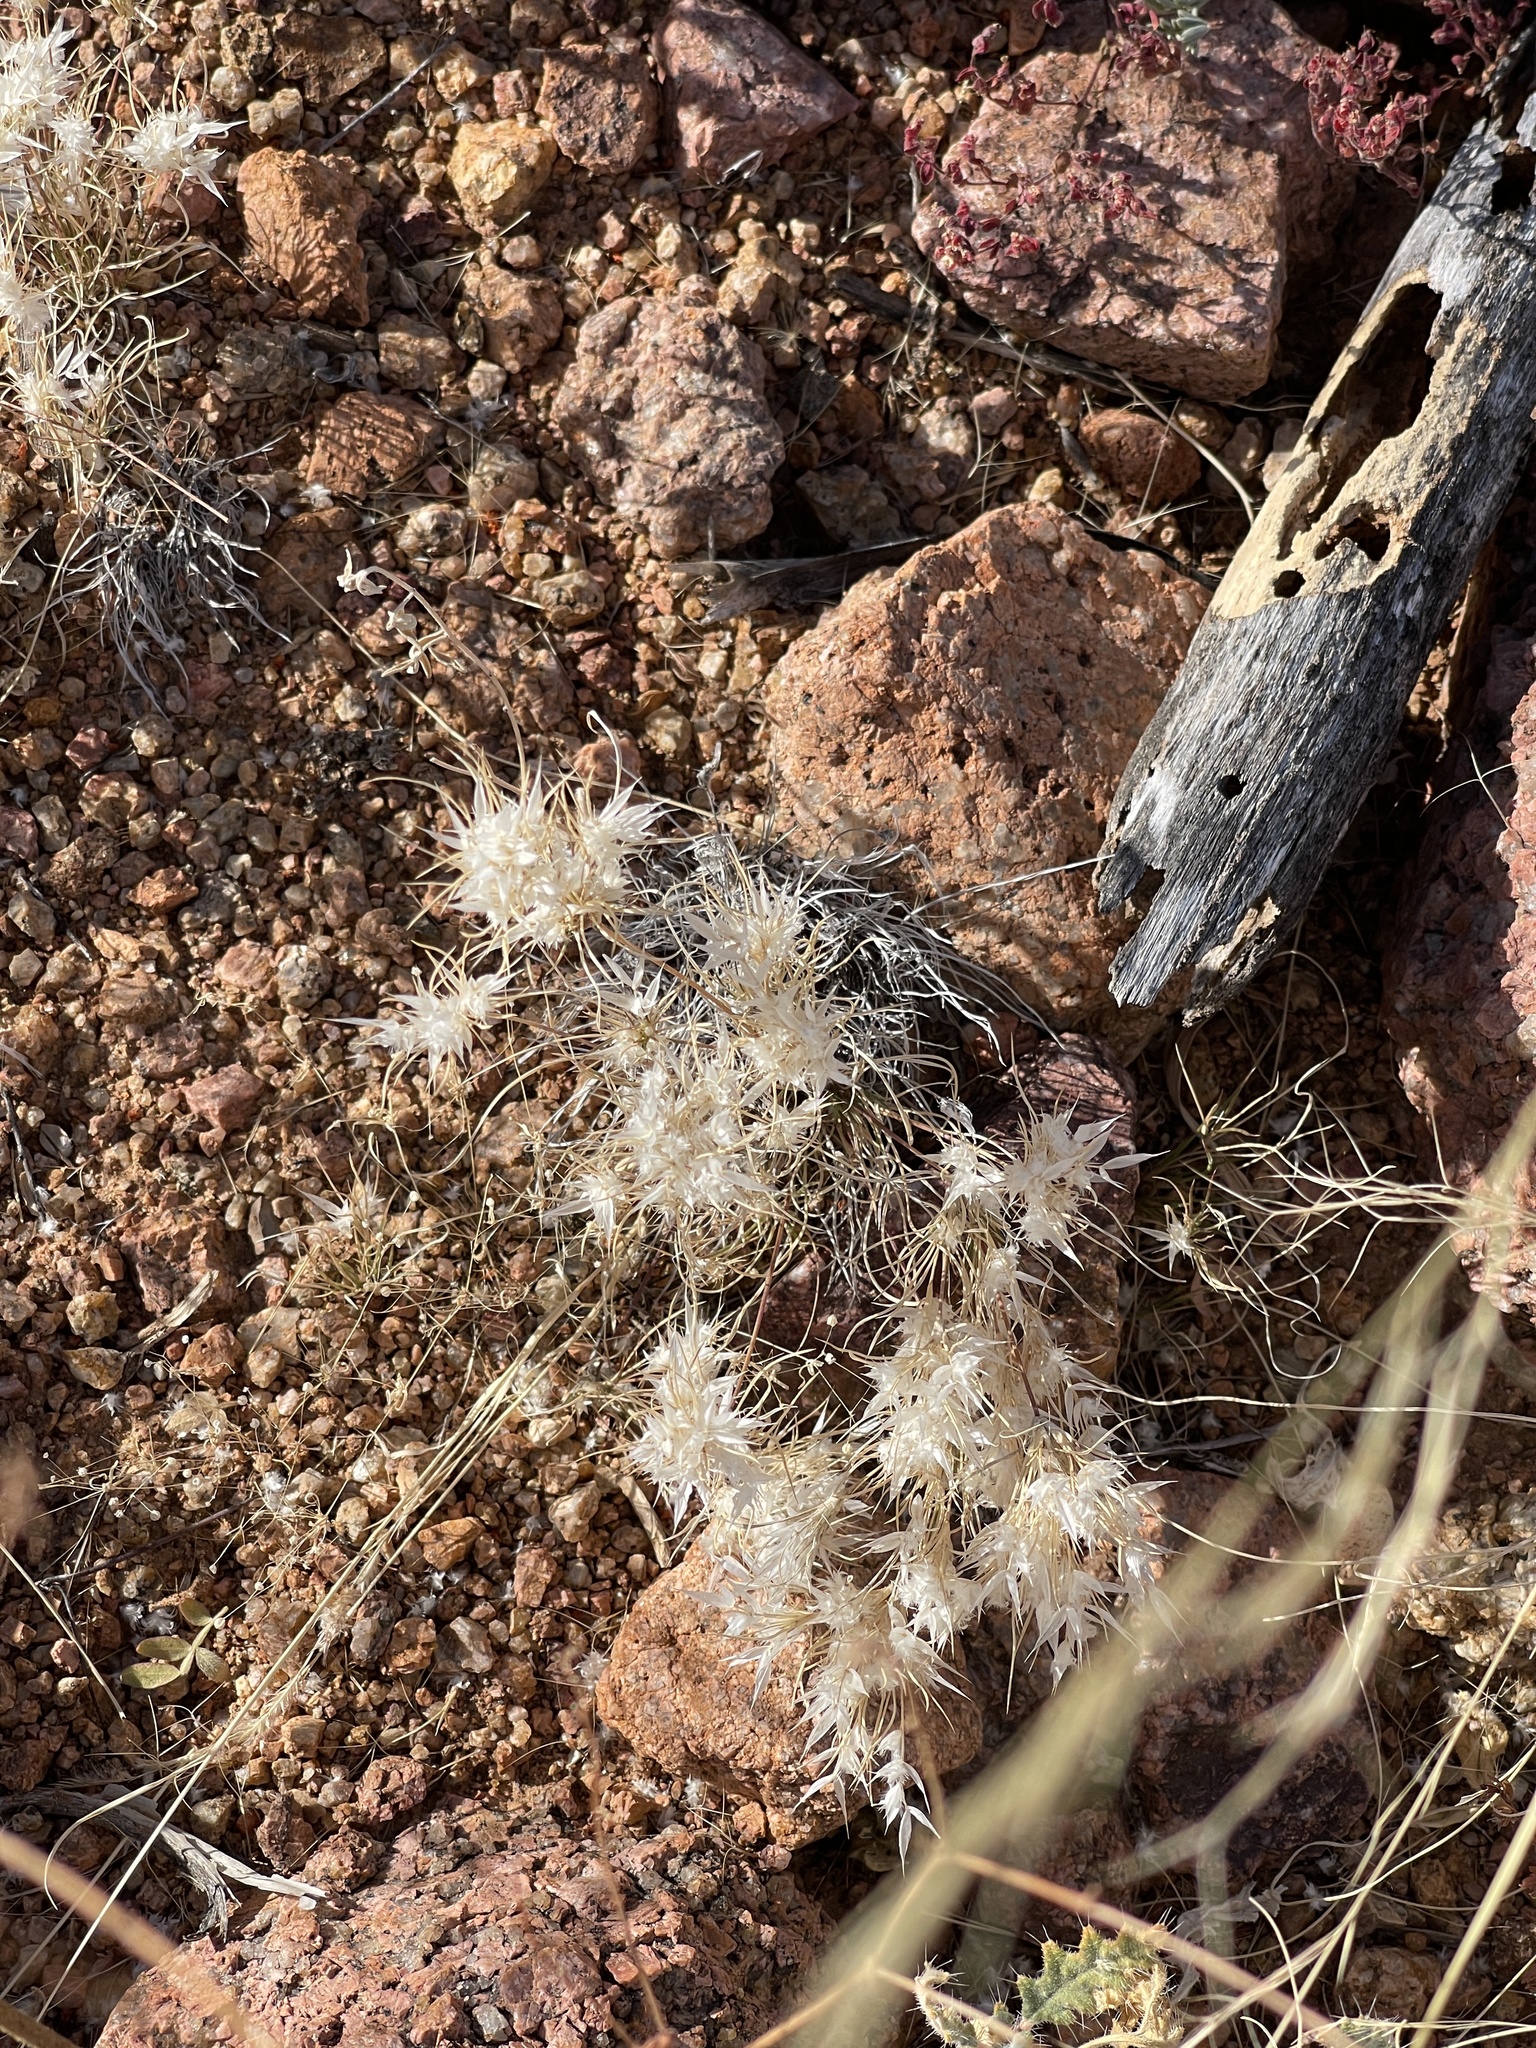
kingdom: Plantae
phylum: Tracheophyta
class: Liliopsida
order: Poales
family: Poaceae
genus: Dasyochloa
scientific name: Dasyochloa pulchella
